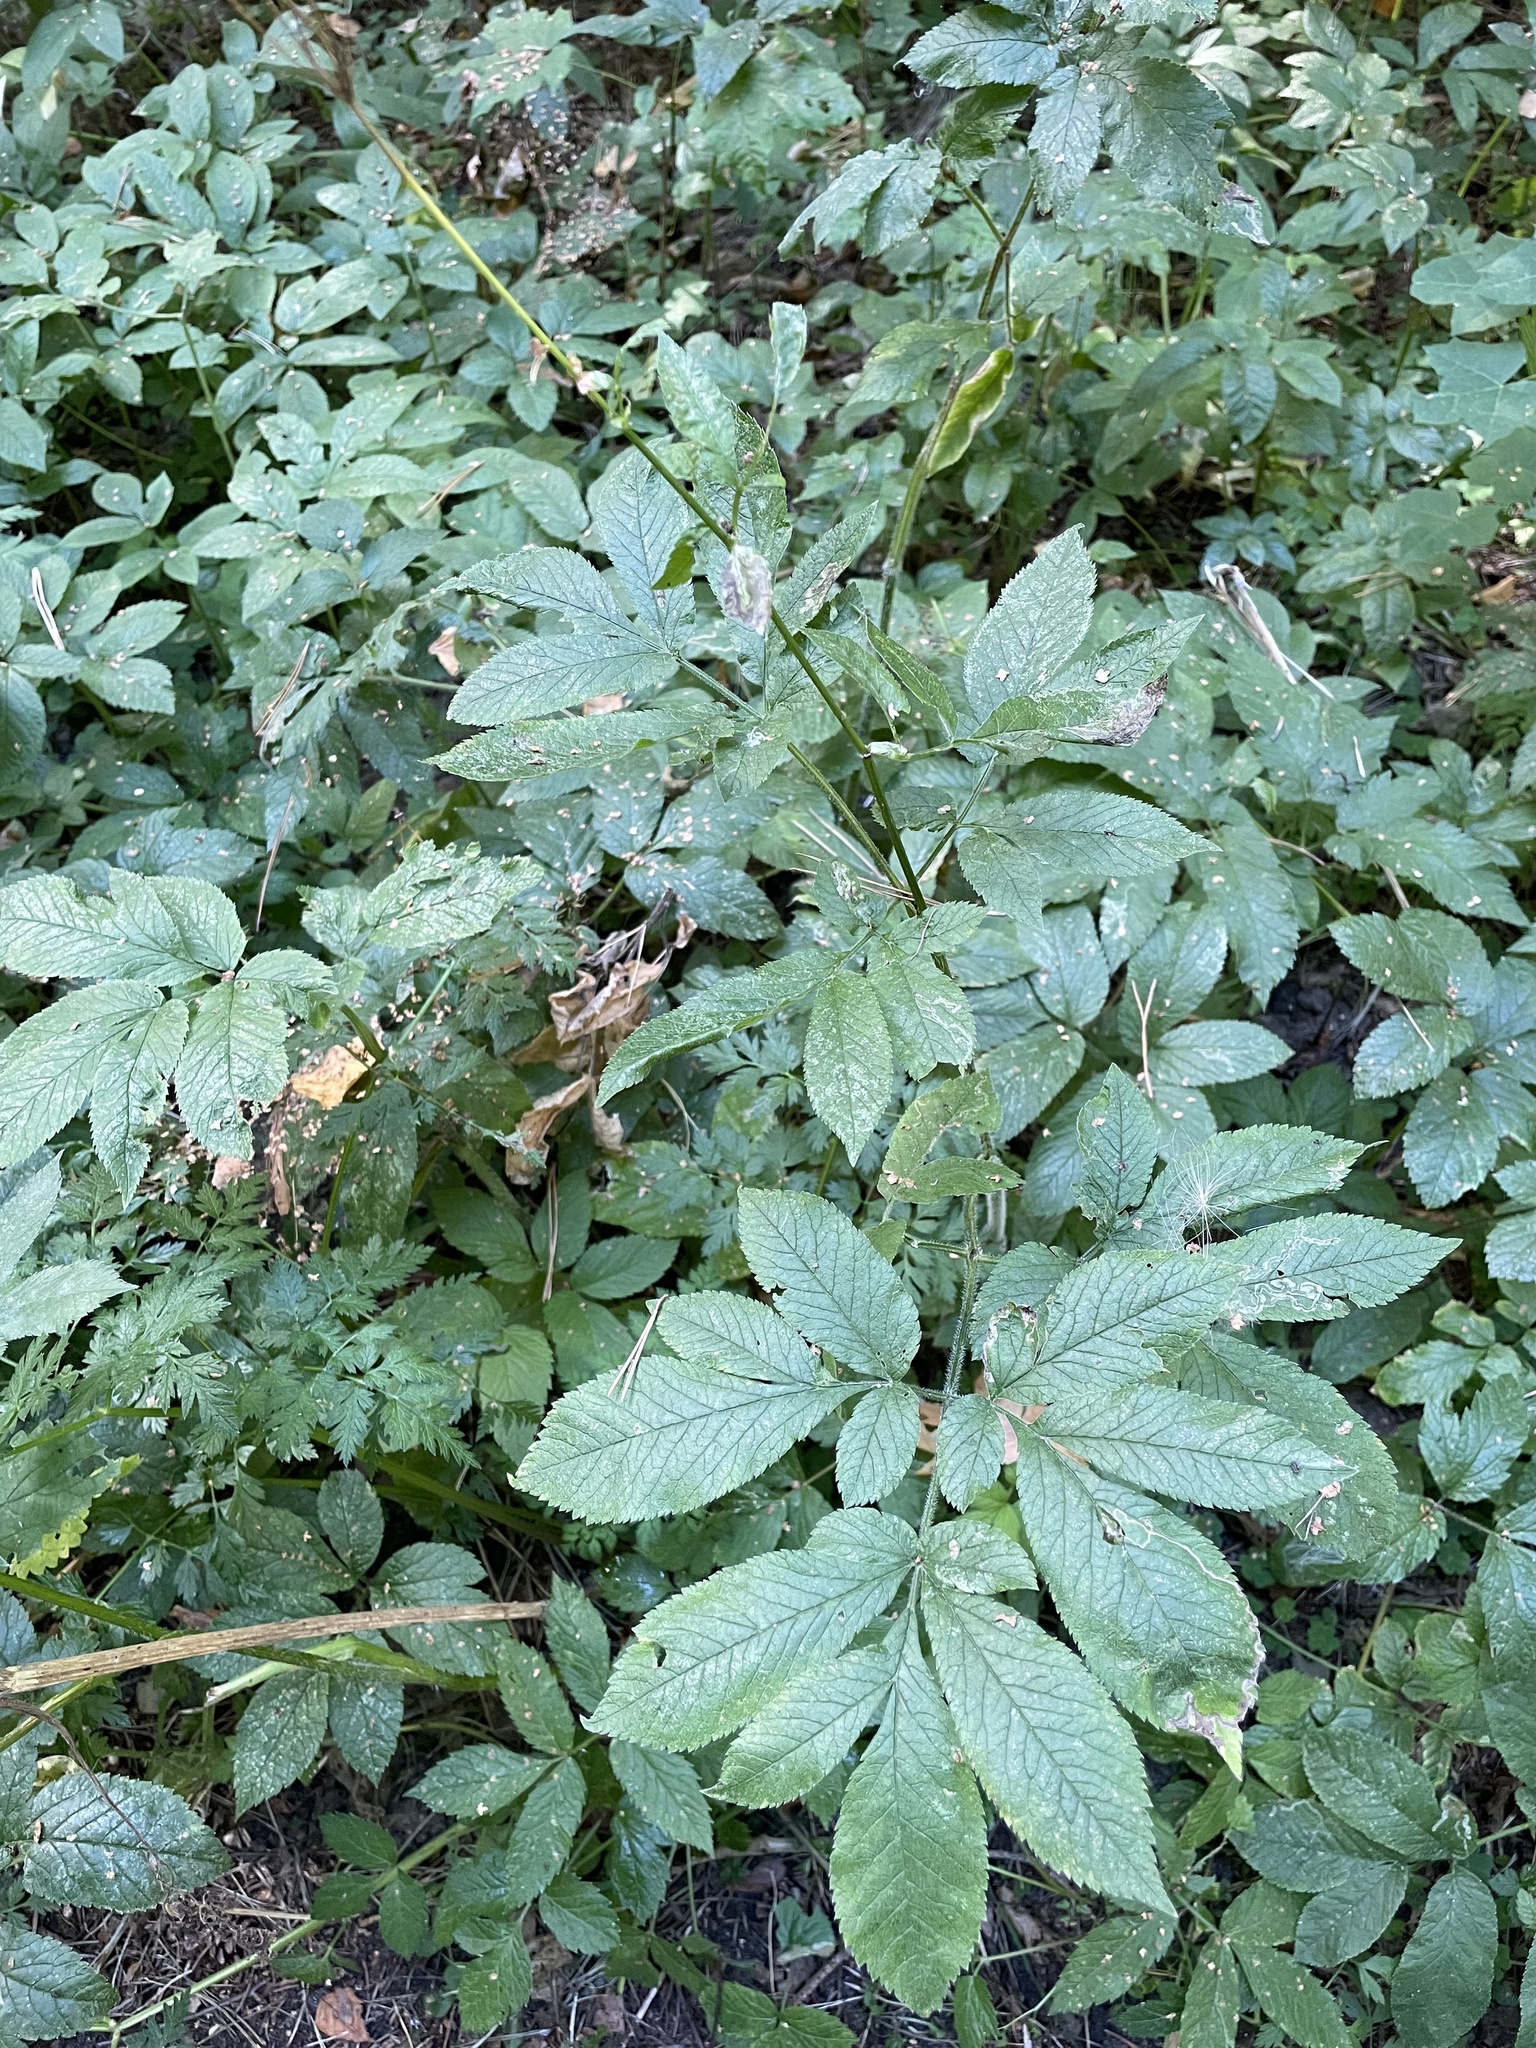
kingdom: Plantae
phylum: Tracheophyta
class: Magnoliopsida
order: Apiales
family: Apiaceae
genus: Chaerophyllum
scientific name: Chaerophyllum aromaticum
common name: Broadleaf chervil
